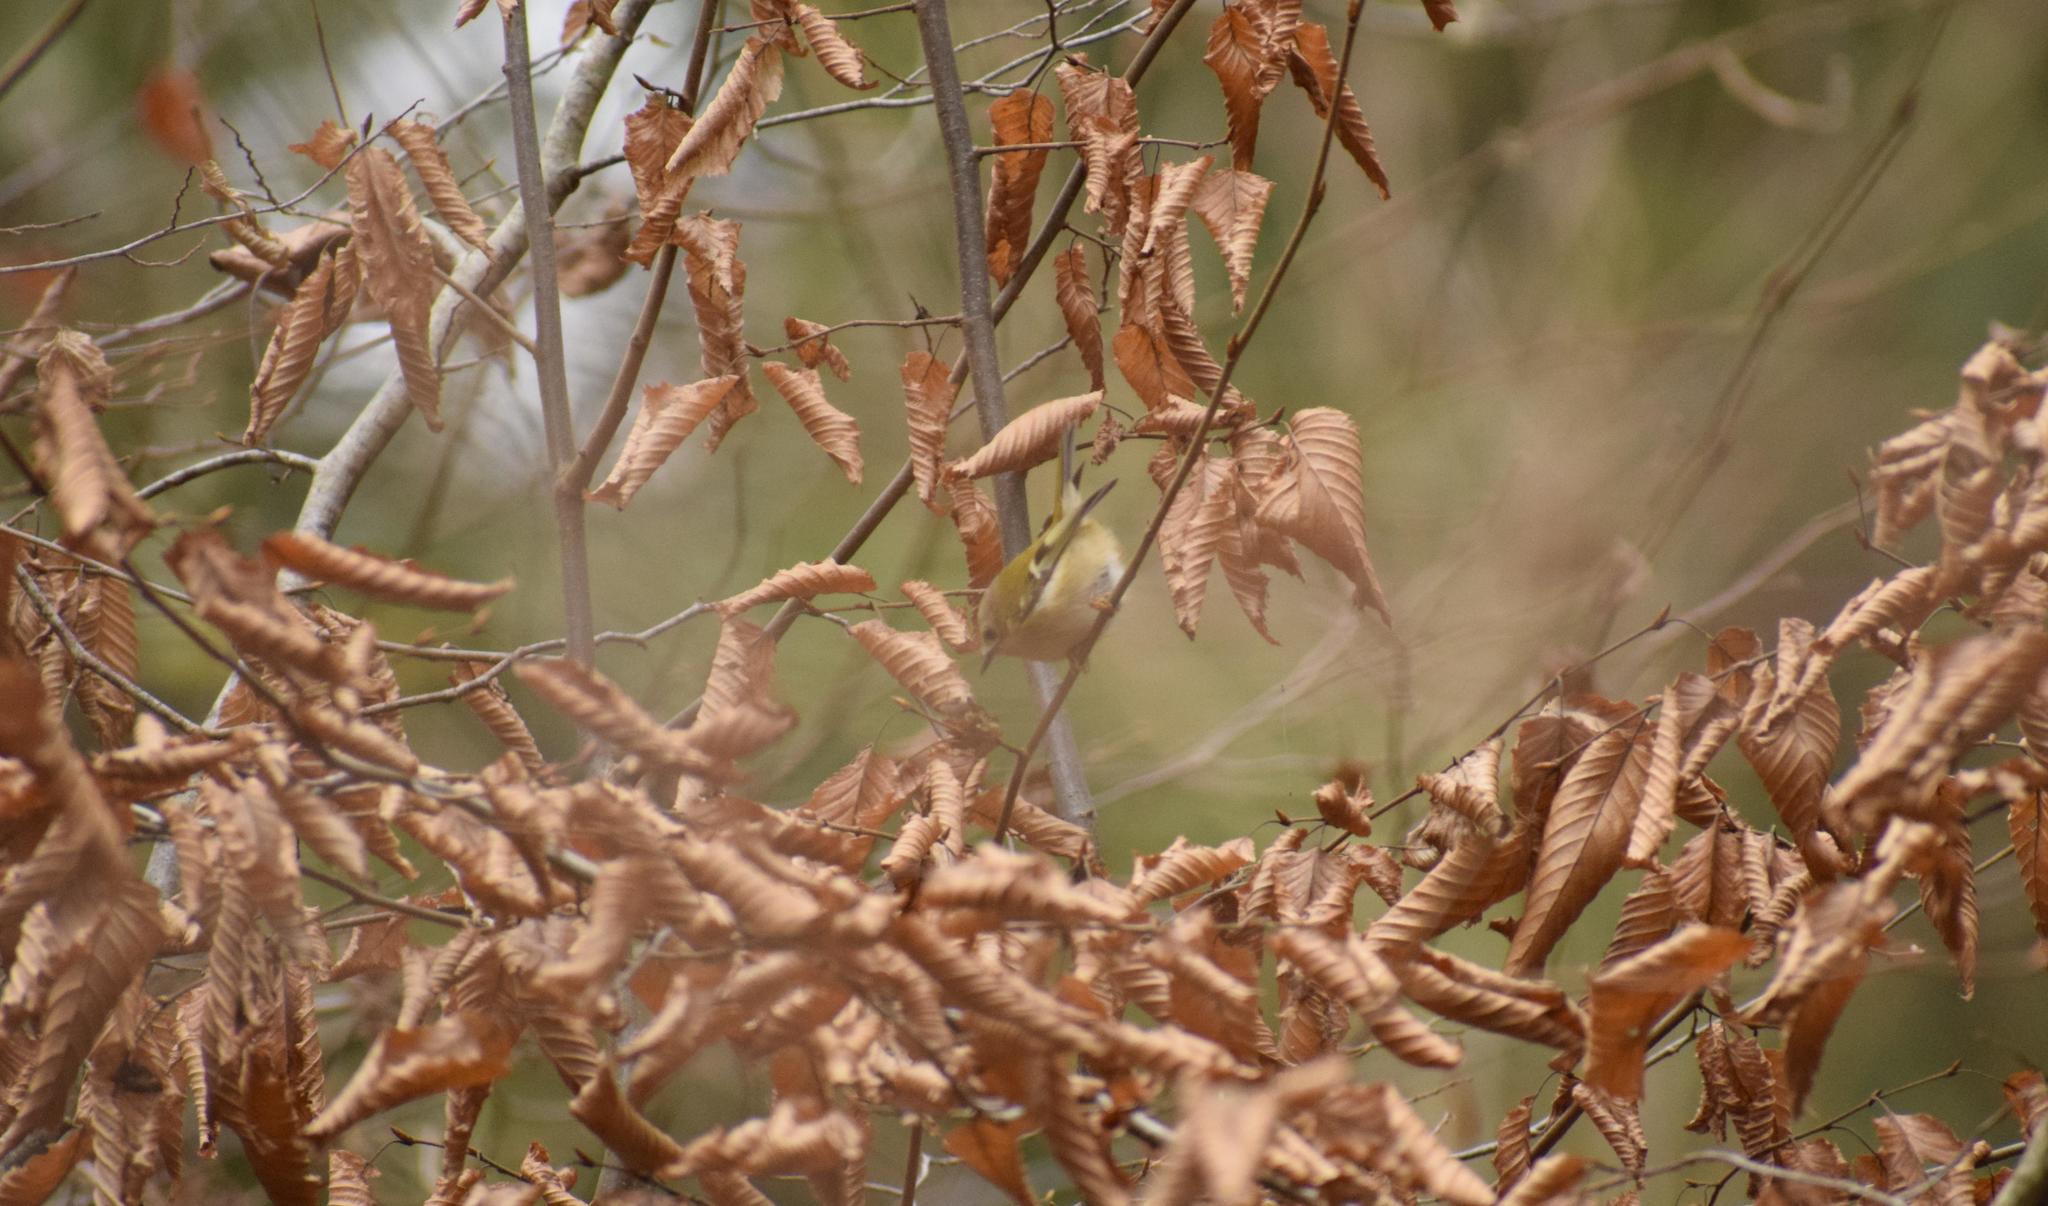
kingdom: Animalia
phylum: Chordata
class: Aves
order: Passeriformes
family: Regulidae
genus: Regulus
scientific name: Regulus regulus
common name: Goldcrest
